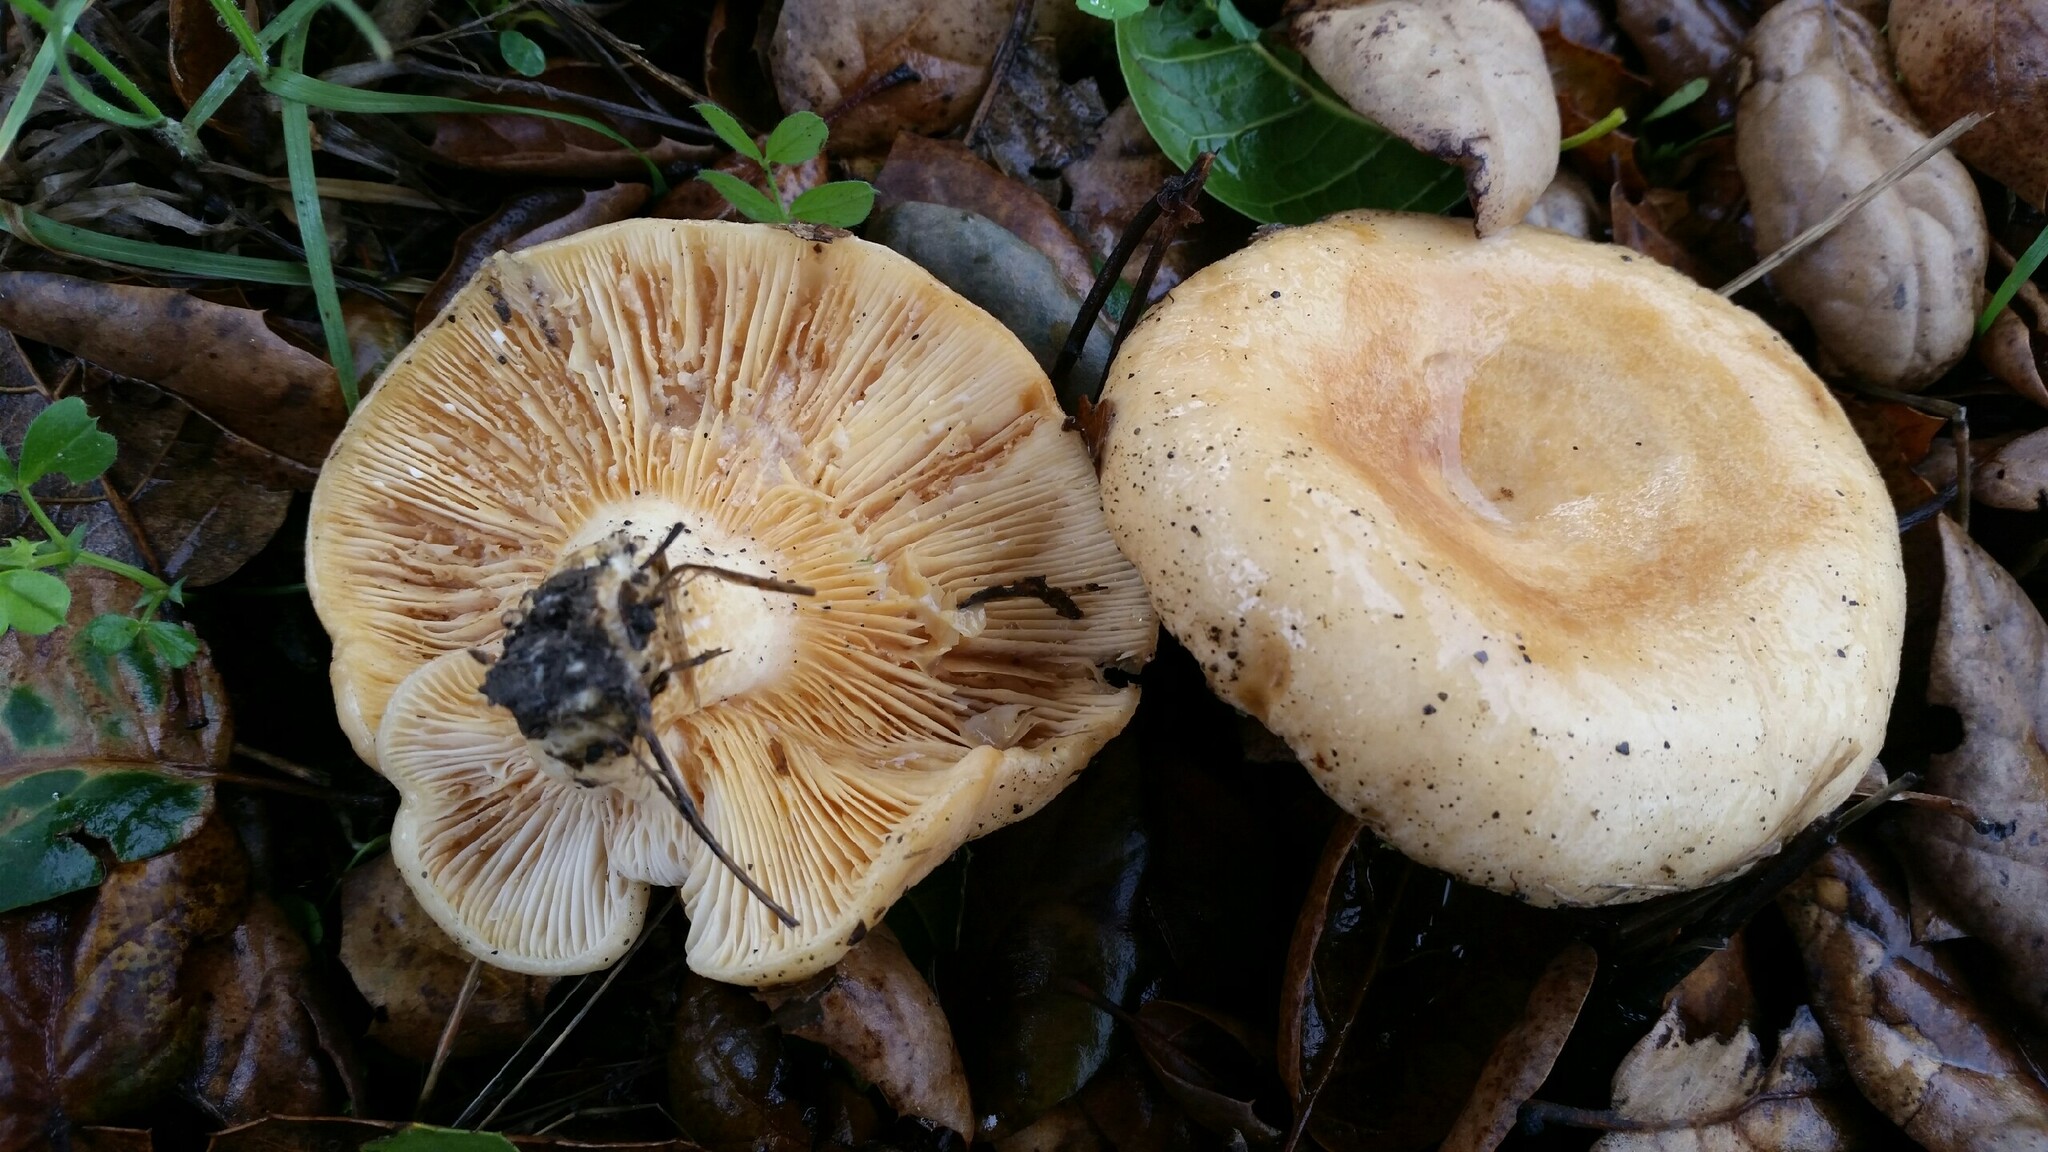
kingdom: Fungi
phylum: Basidiomycota
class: Agaricomycetes
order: Russulales
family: Russulaceae
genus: Lactarius
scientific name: Lactarius alnicola
